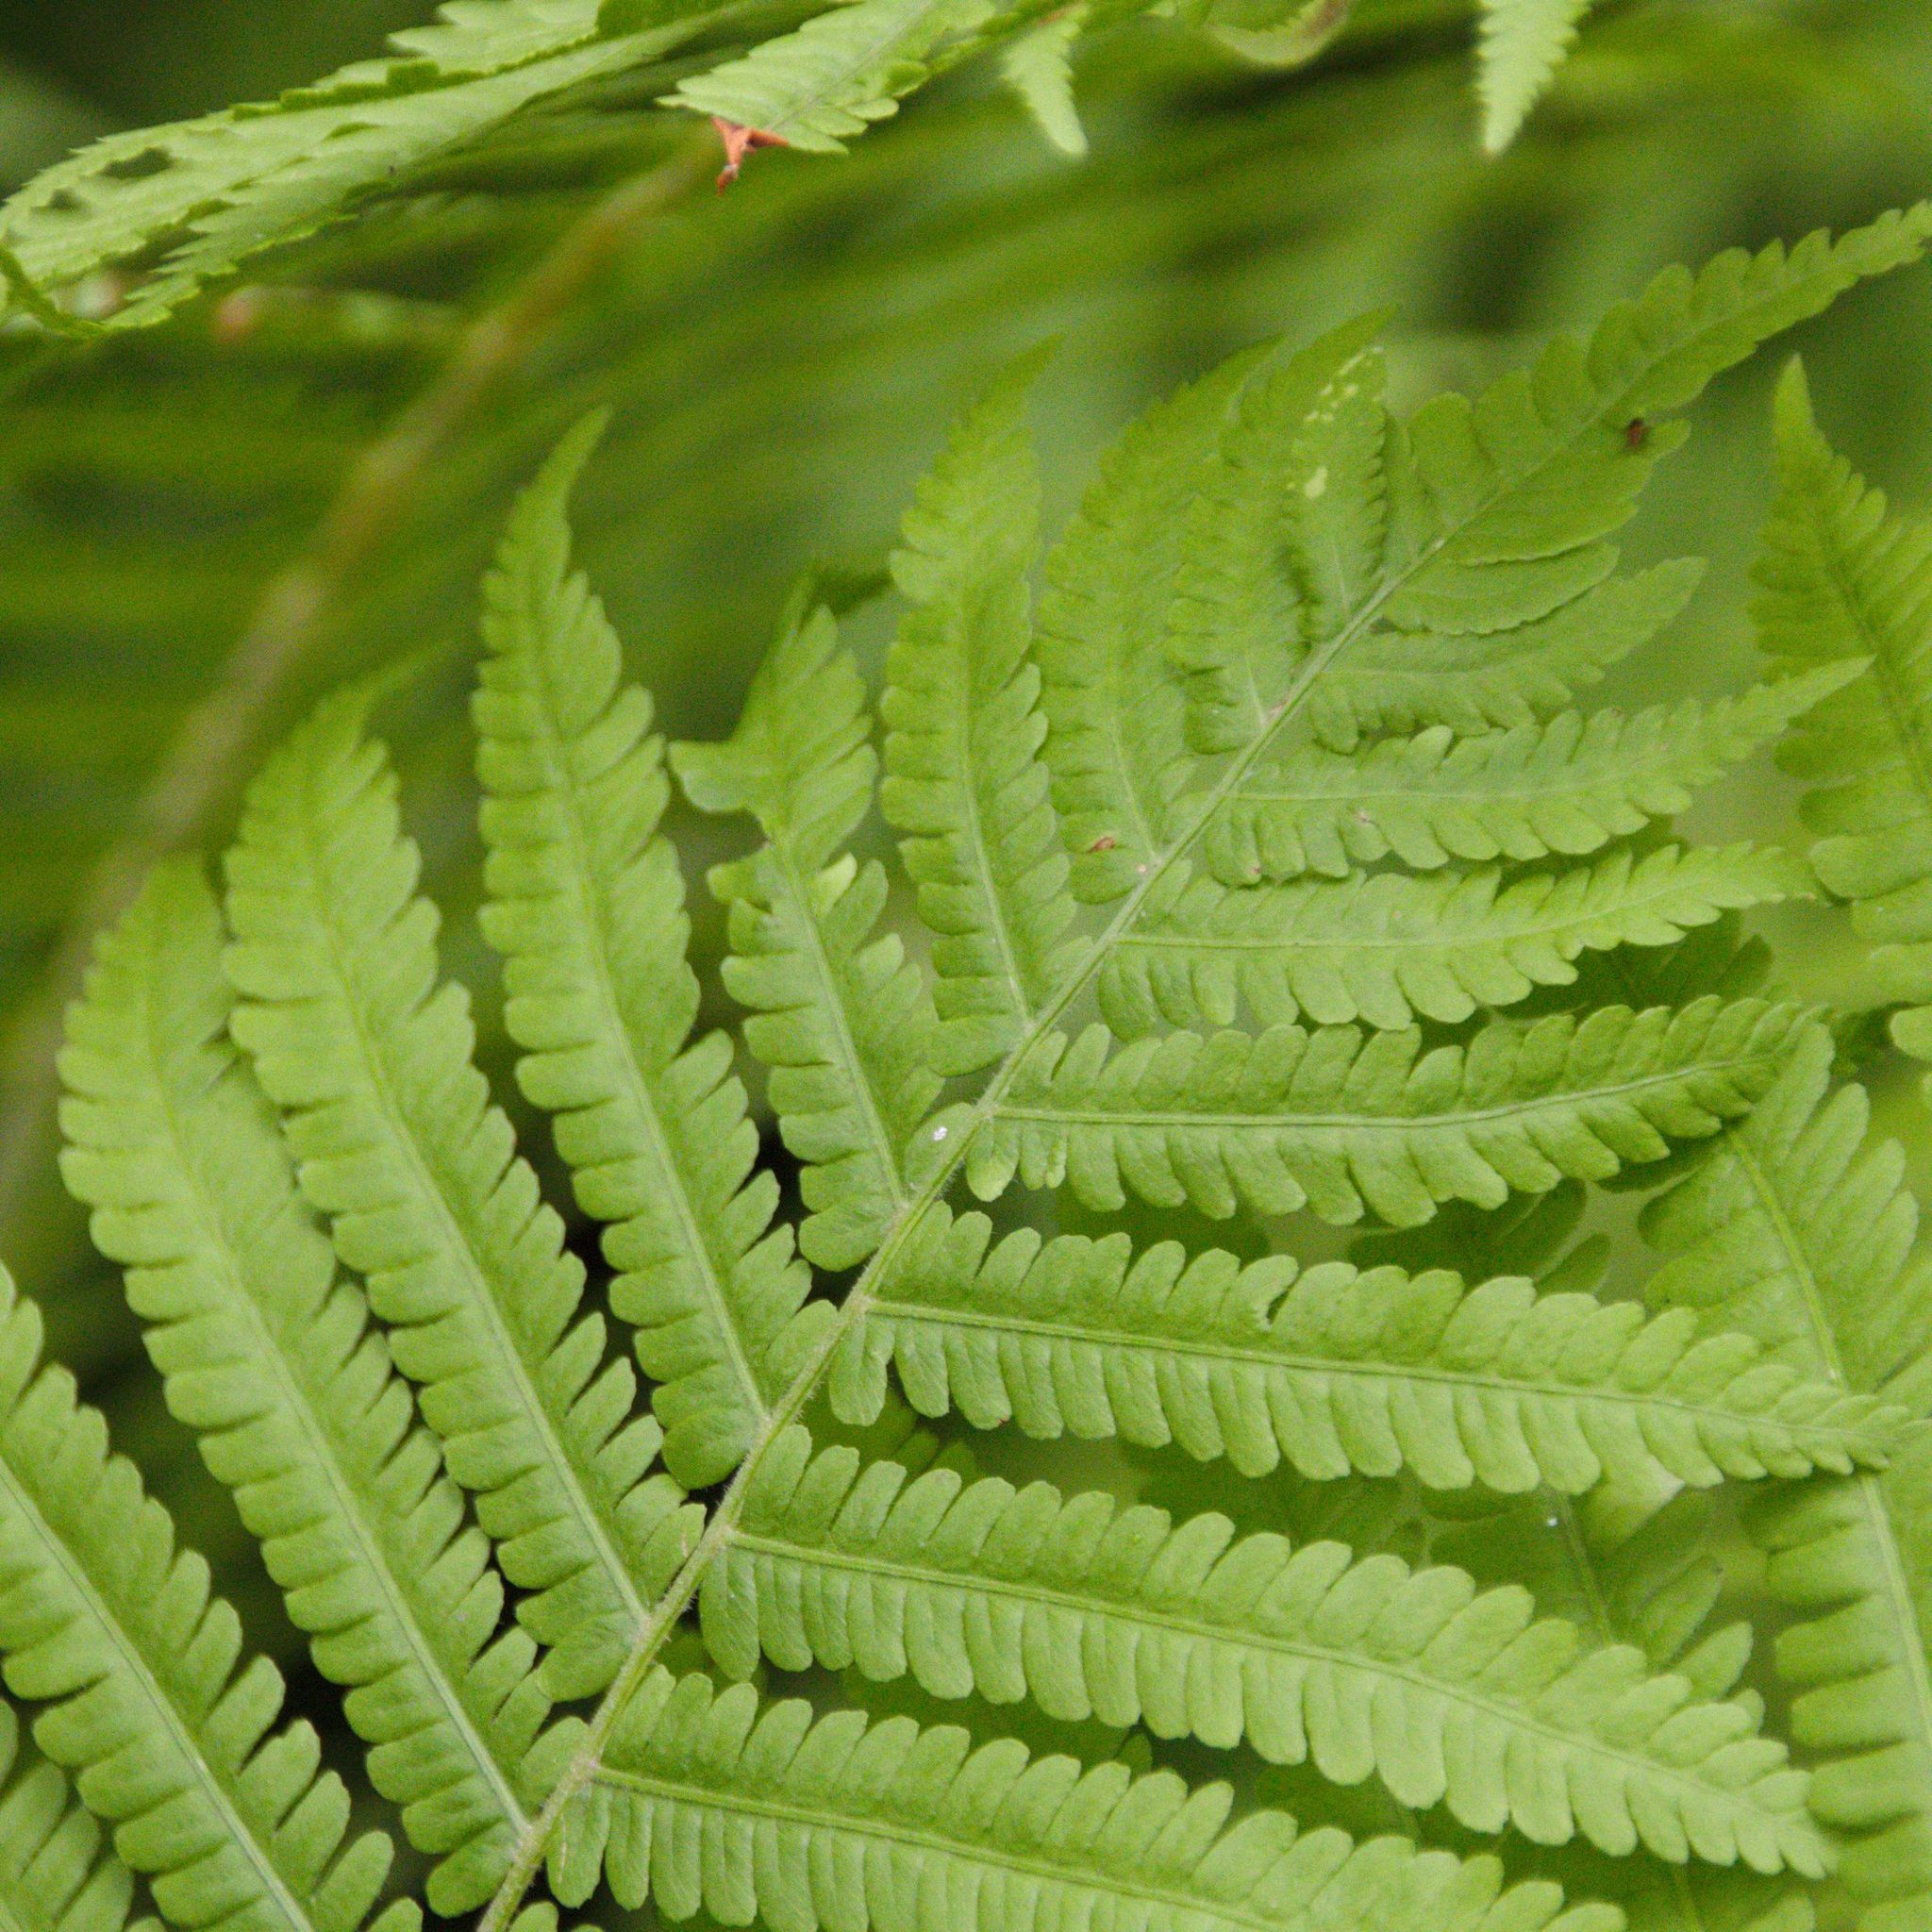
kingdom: Plantae
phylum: Tracheophyta
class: Polypodiopsida
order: Polypodiales
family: Onocleaceae
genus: Matteuccia
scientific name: Matteuccia struthiopteris
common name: Ostrich fern
